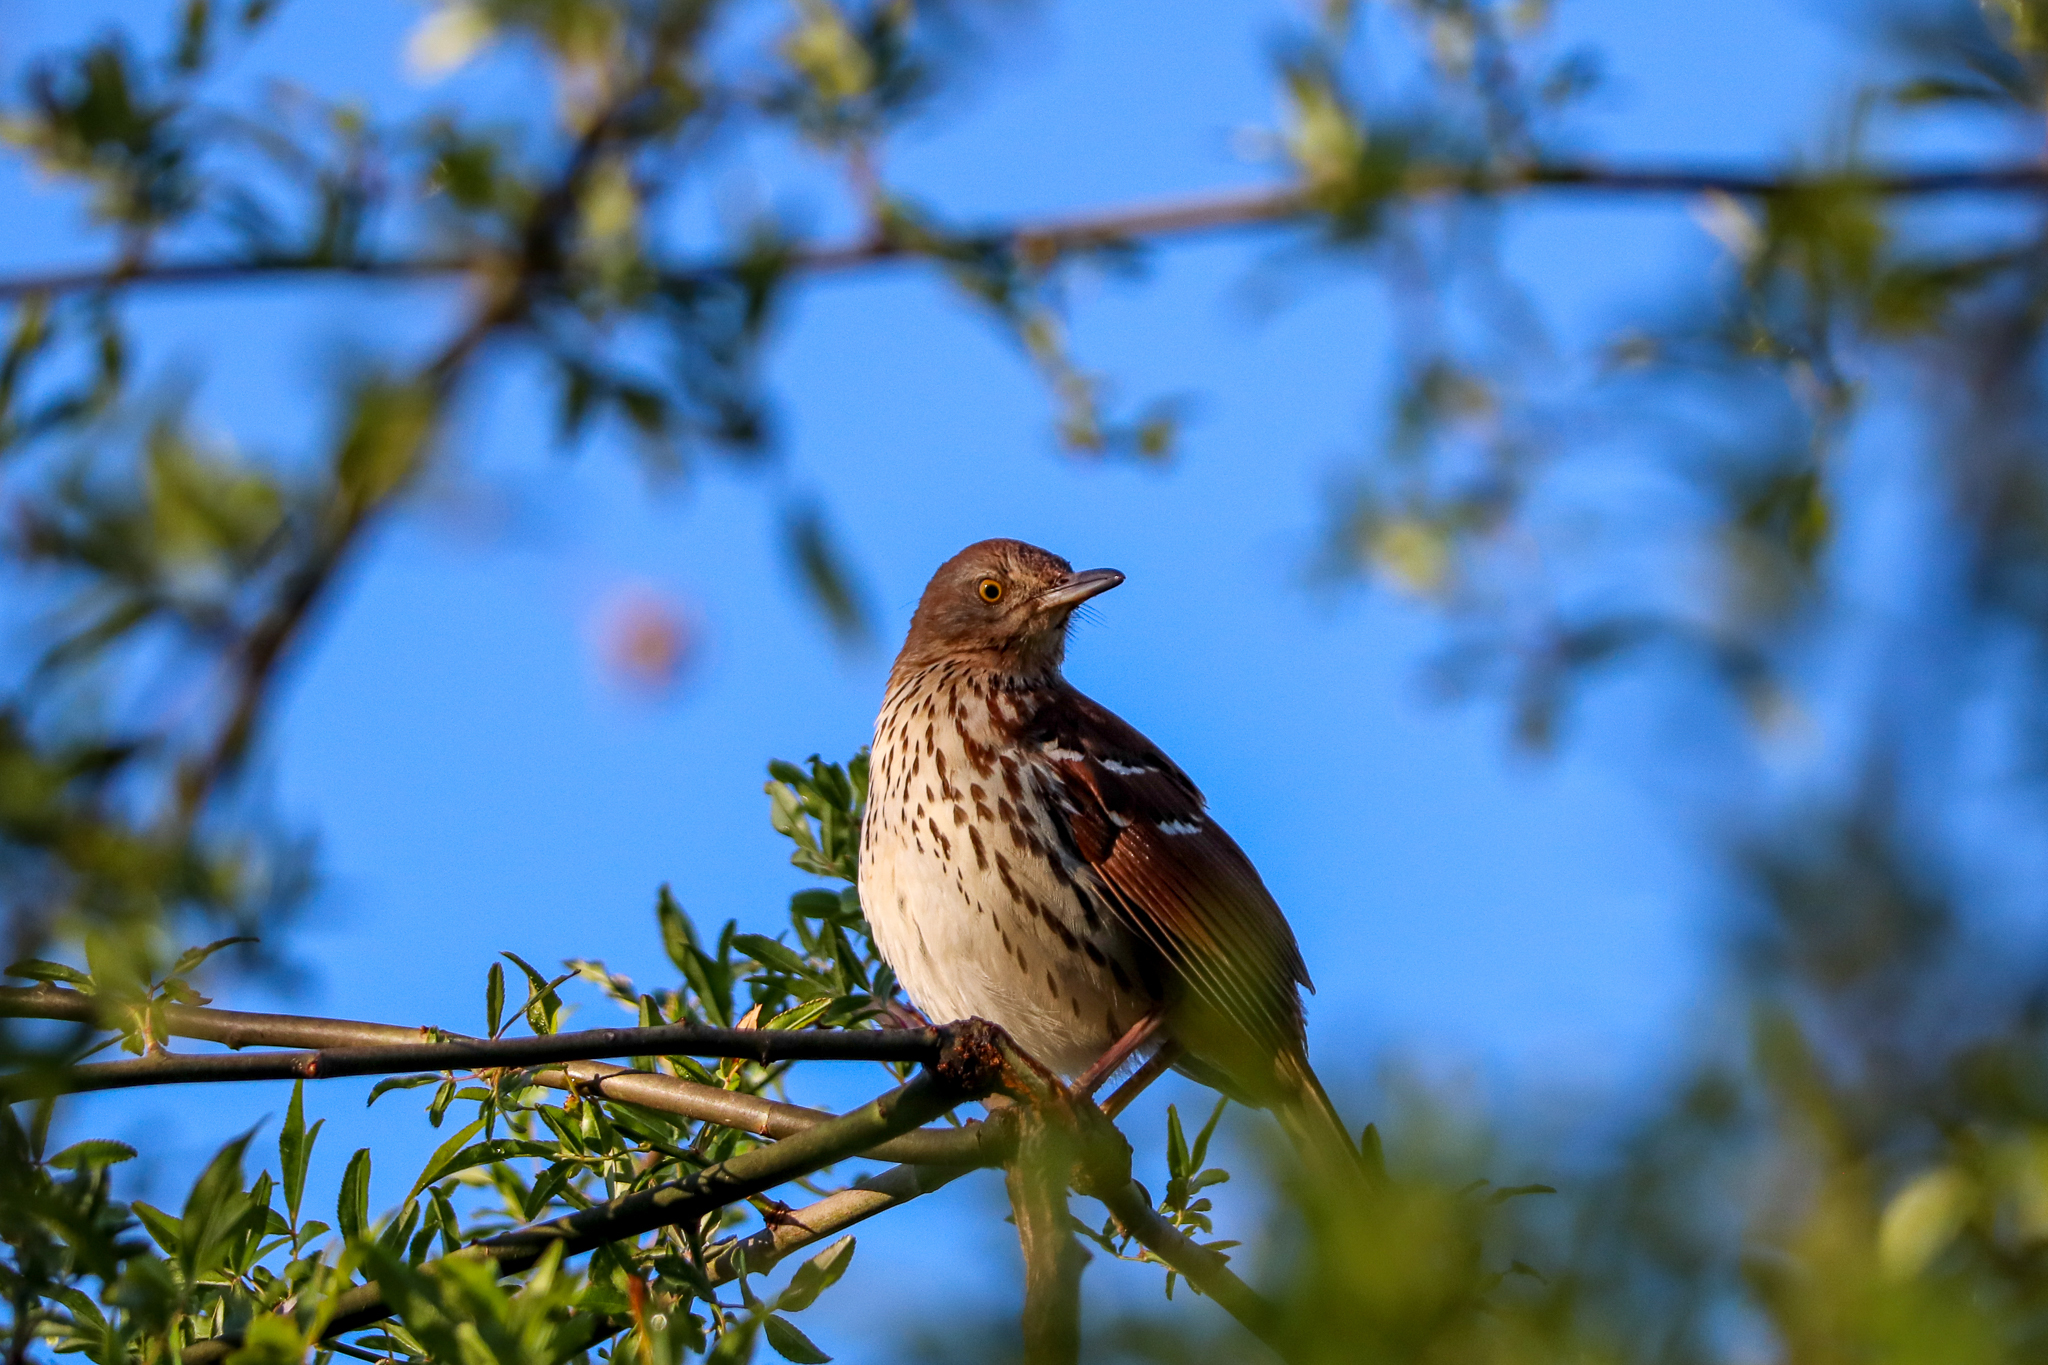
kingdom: Animalia
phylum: Chordata
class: Aves
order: Passeriformes
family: Mimidae
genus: Toxostoma
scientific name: Toxostoma rufum
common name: Brown thrasher
